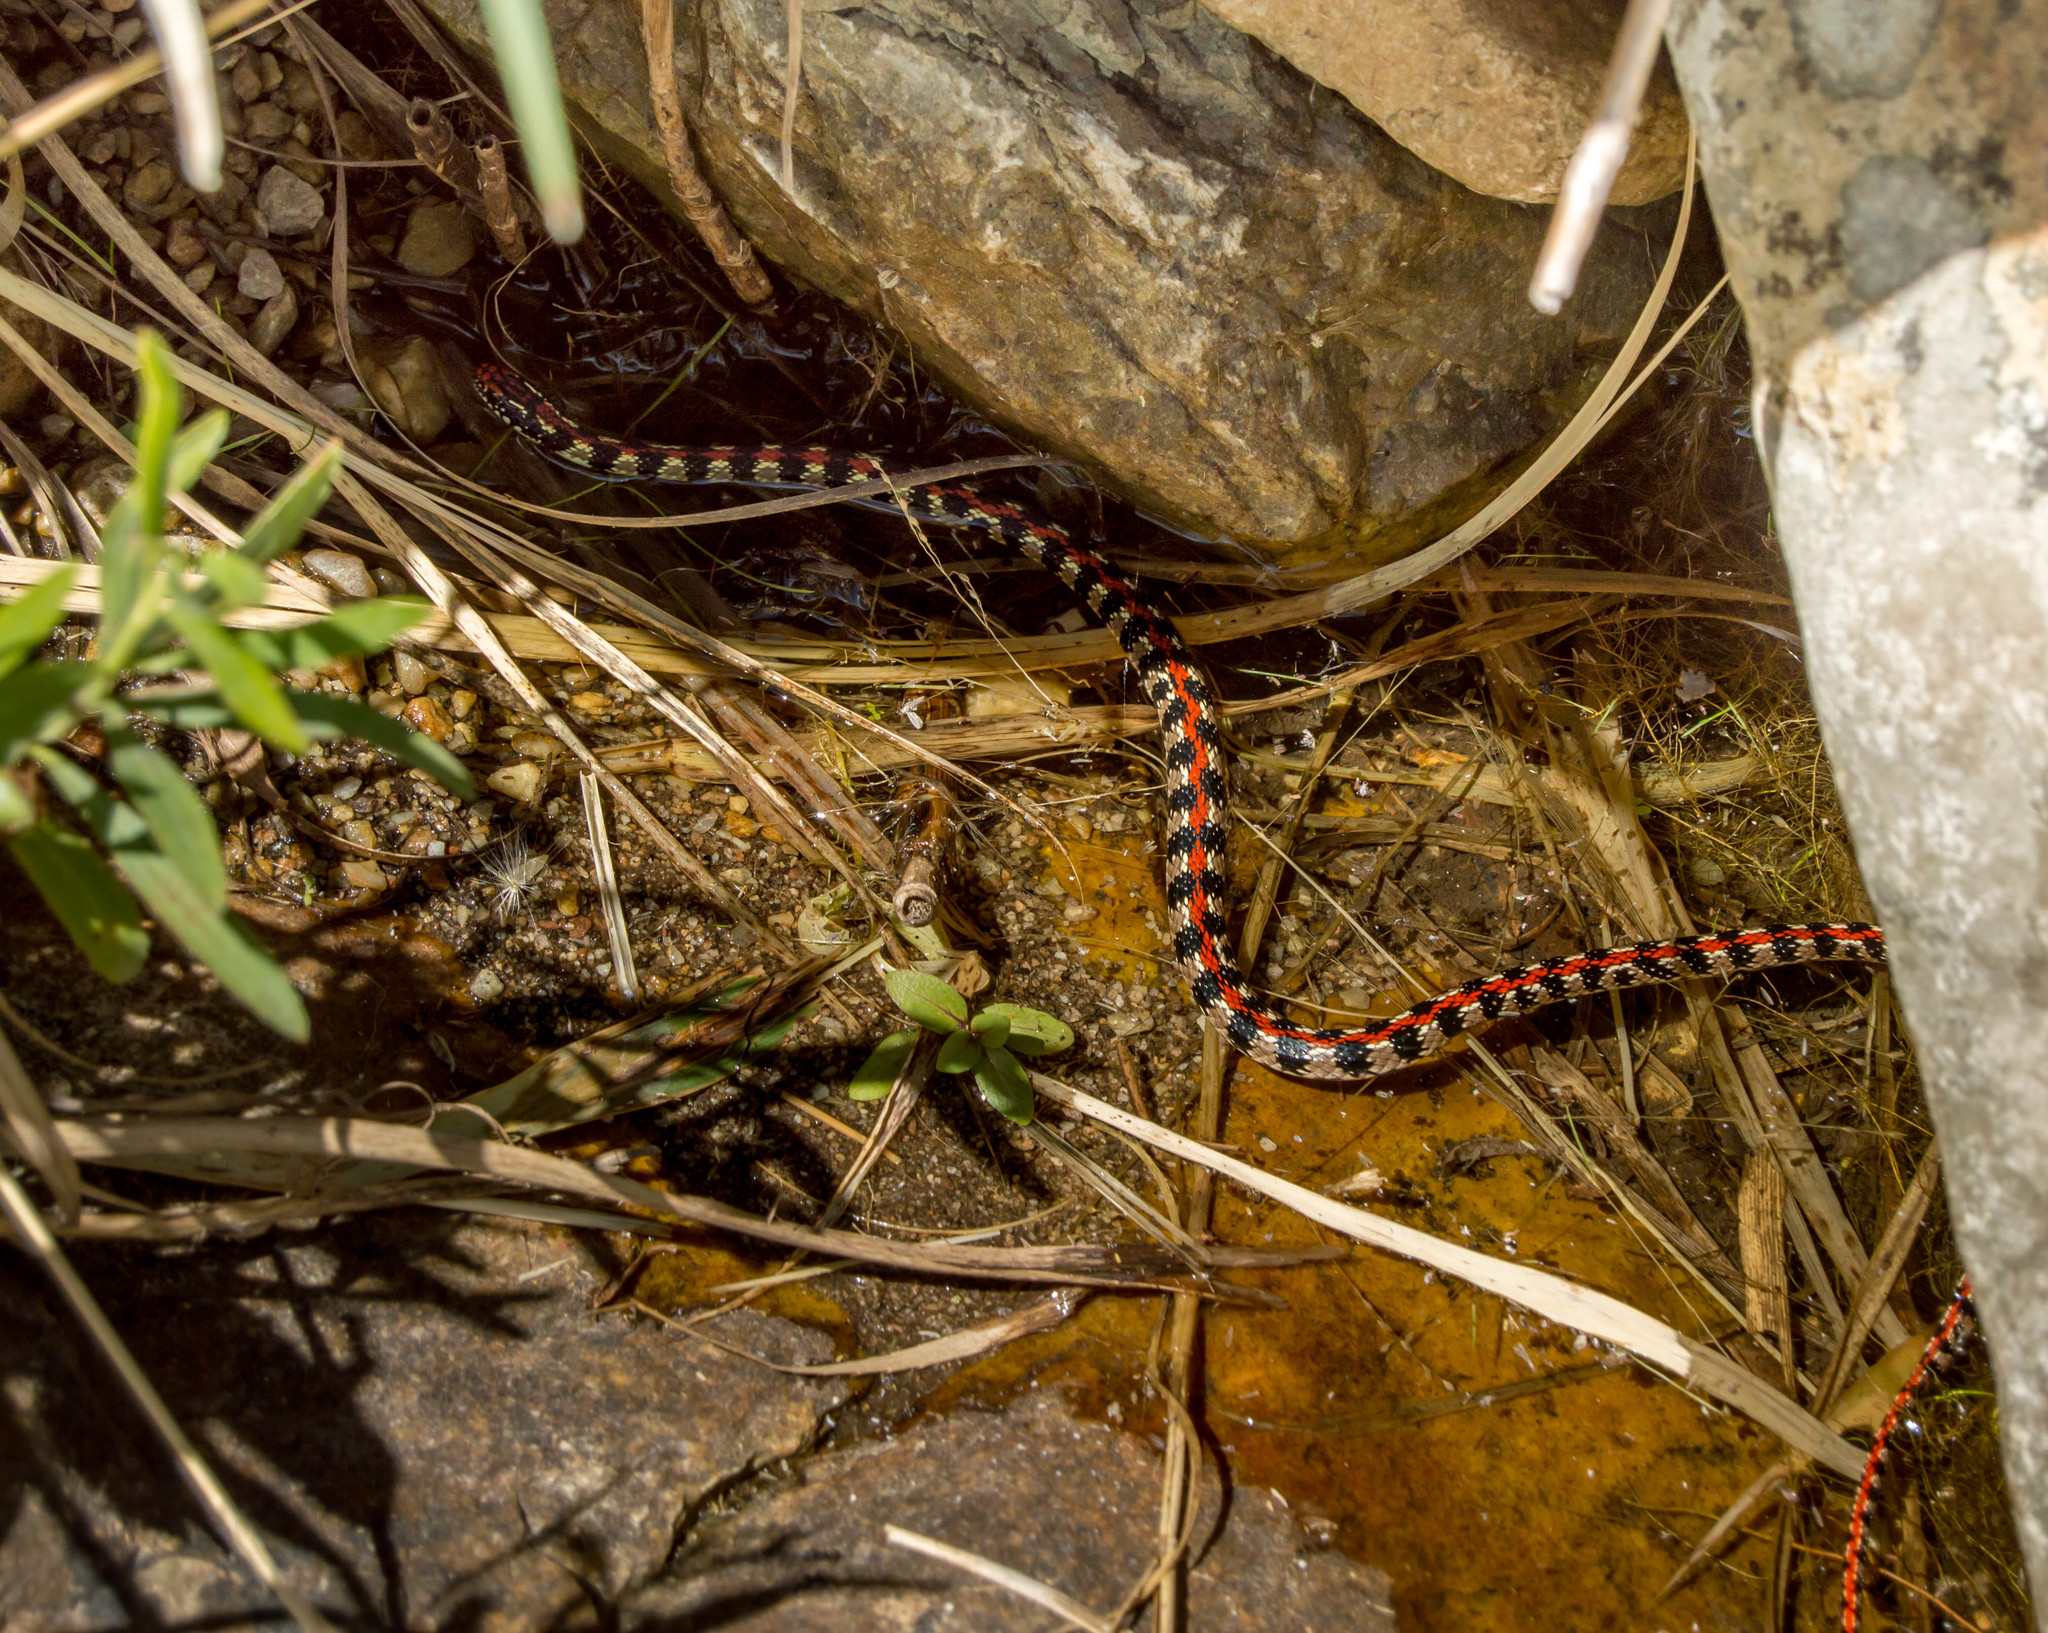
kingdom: Animalia
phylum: Chordata
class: Squamata
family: Colubridae
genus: Lygophis
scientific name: Lygophis elegantissimus
